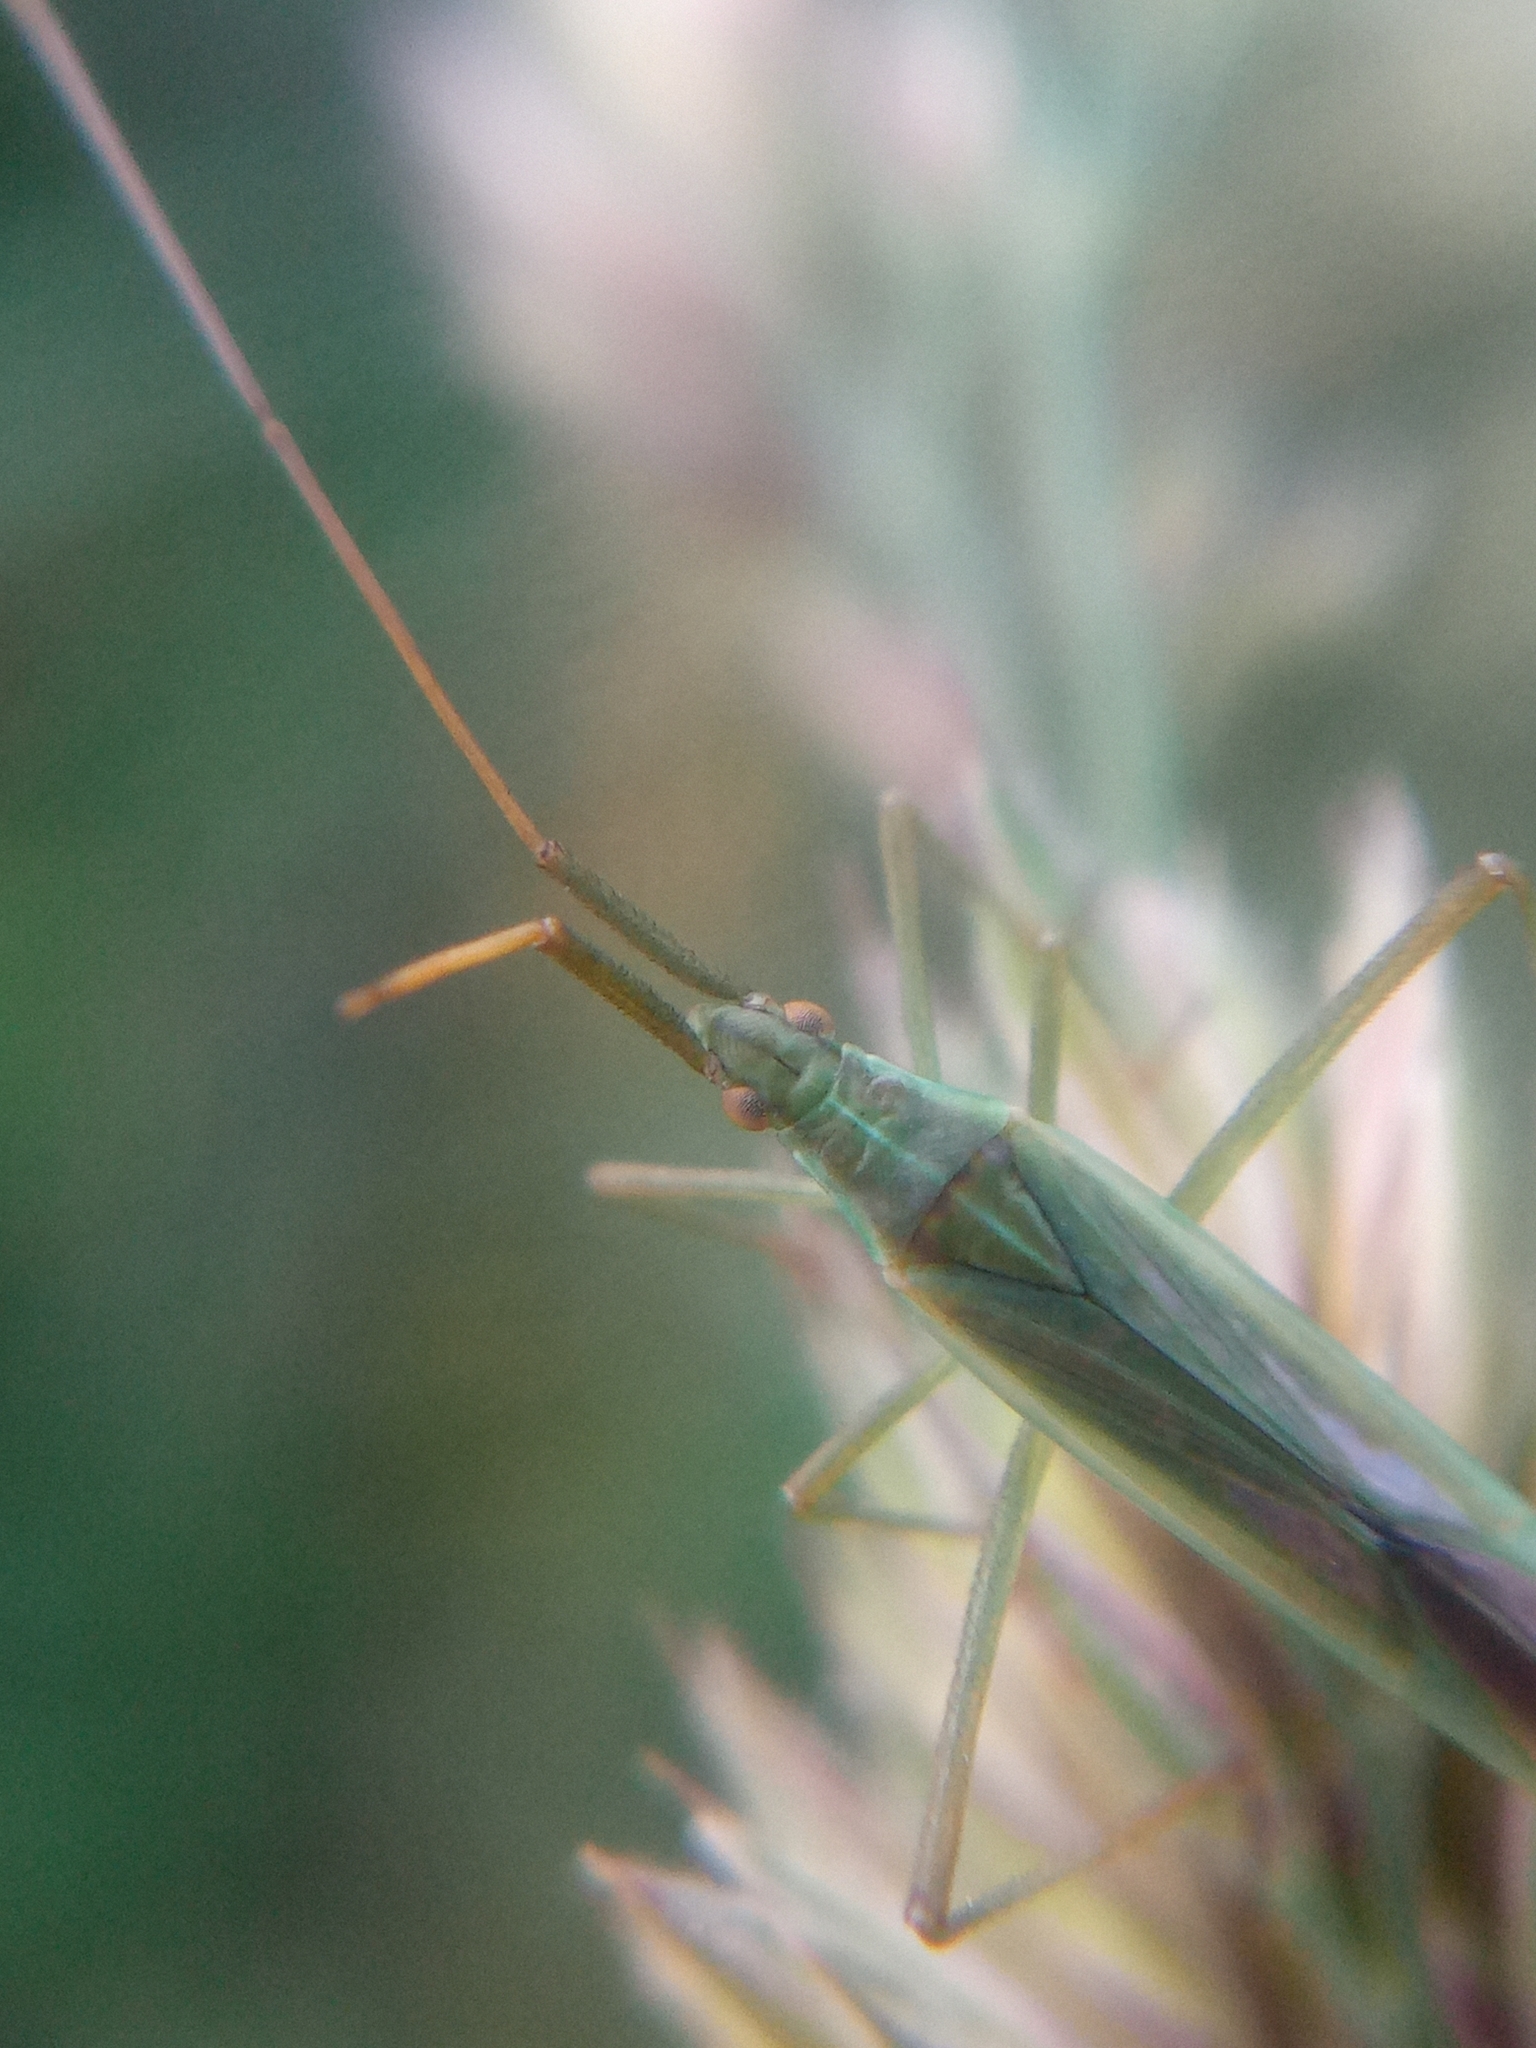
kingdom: Animalia
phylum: Arthropoda
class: Insecta
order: Hemiptera
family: Miridae
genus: Megaloceroea
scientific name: Megaloceroea recticornis
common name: Plant bug
